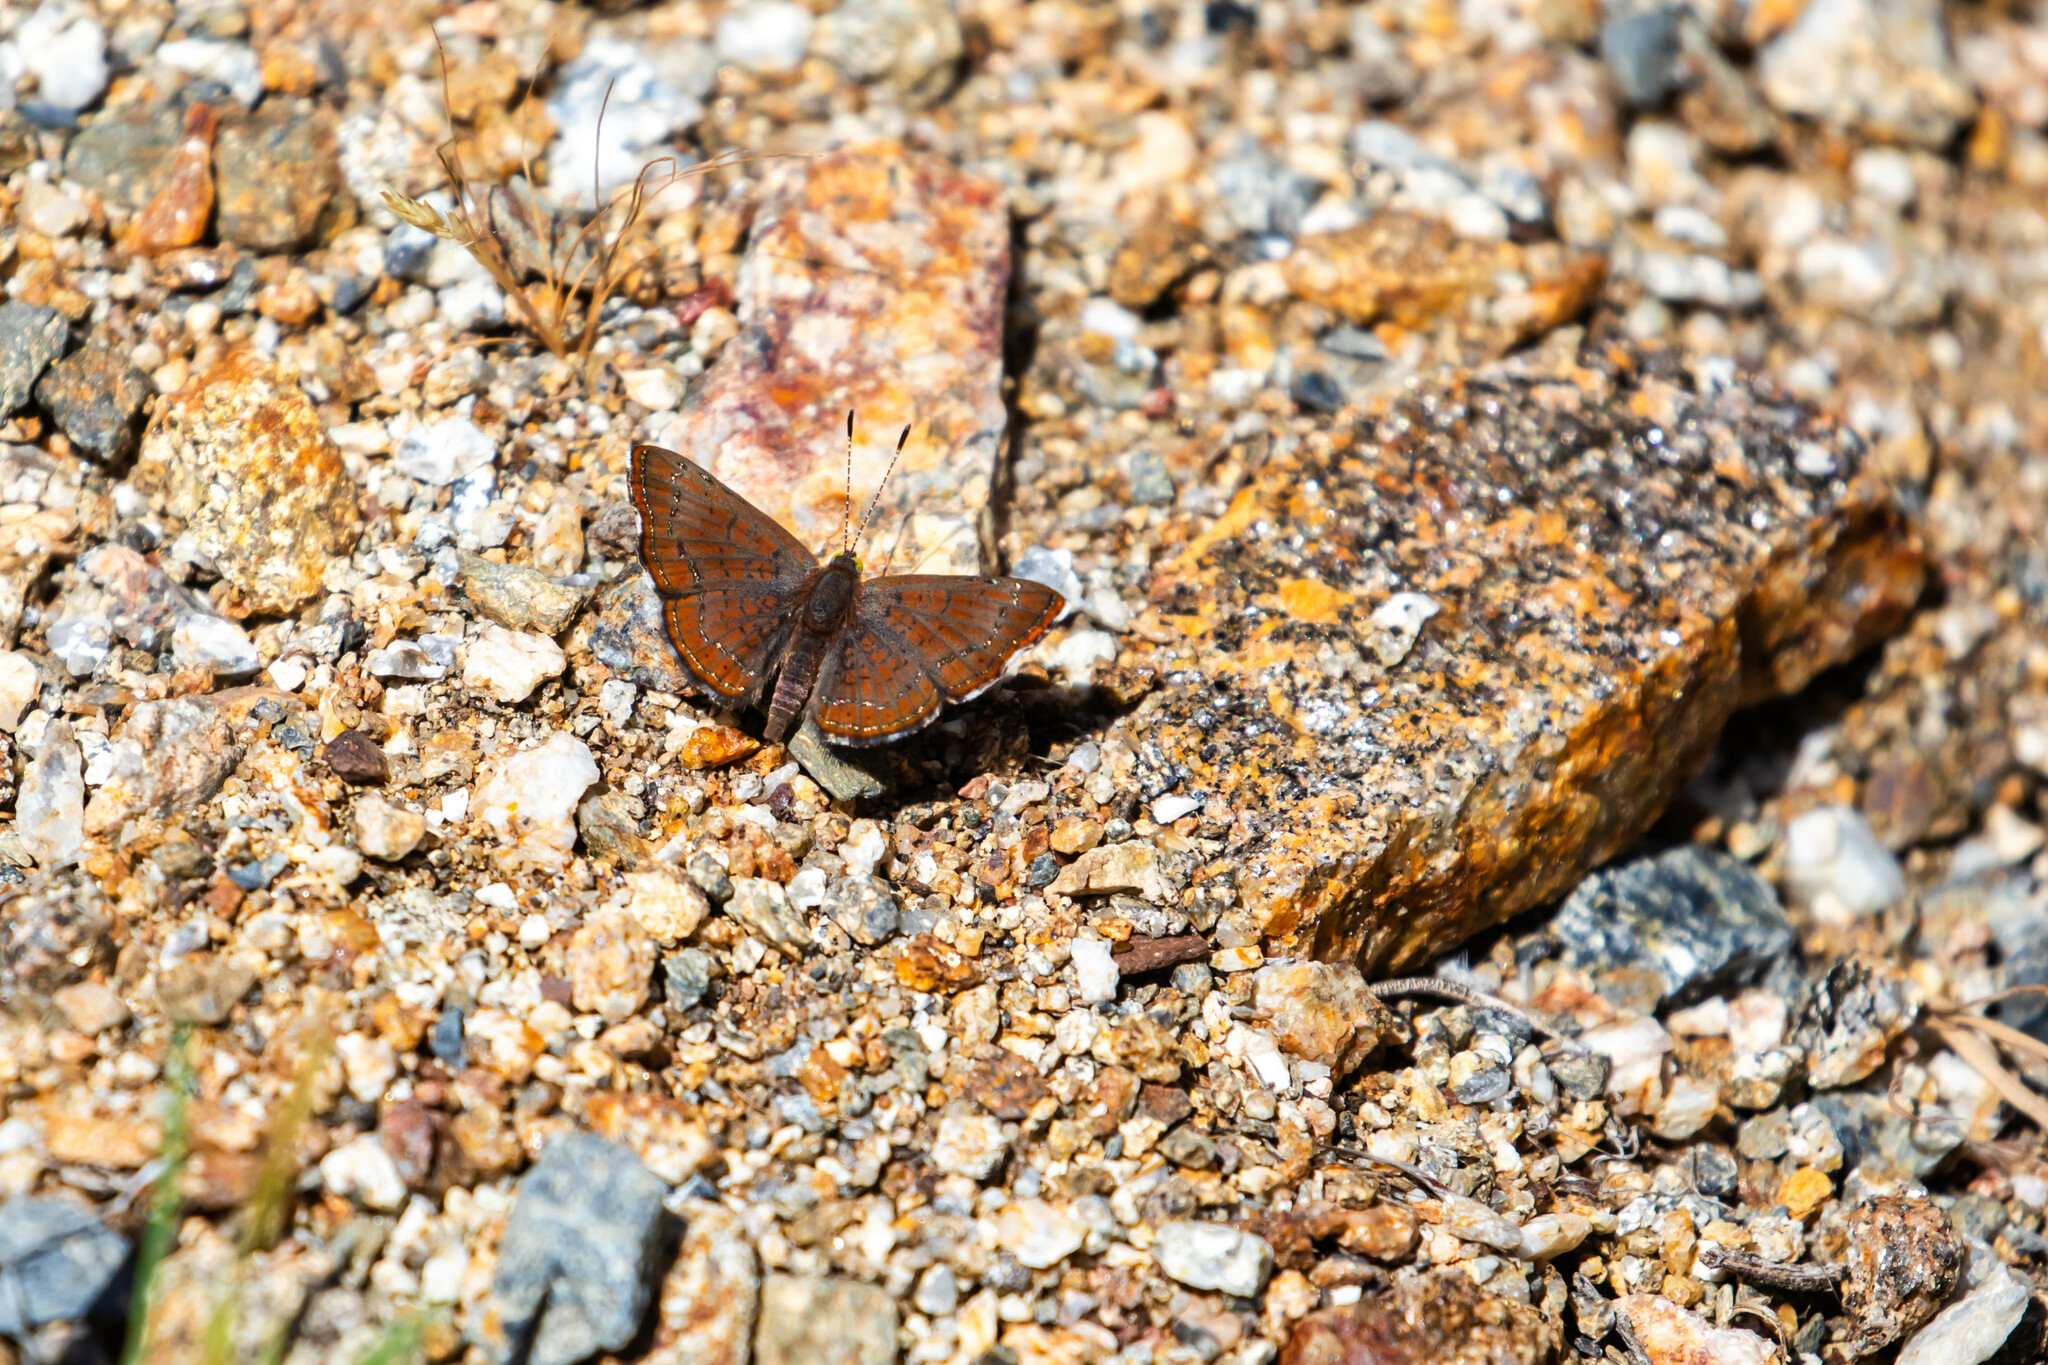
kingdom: Animalia
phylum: Arthropoda
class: Insecta
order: Lepidoptera
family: Lycaenidae
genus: Emesis
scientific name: Emesis wrighti
